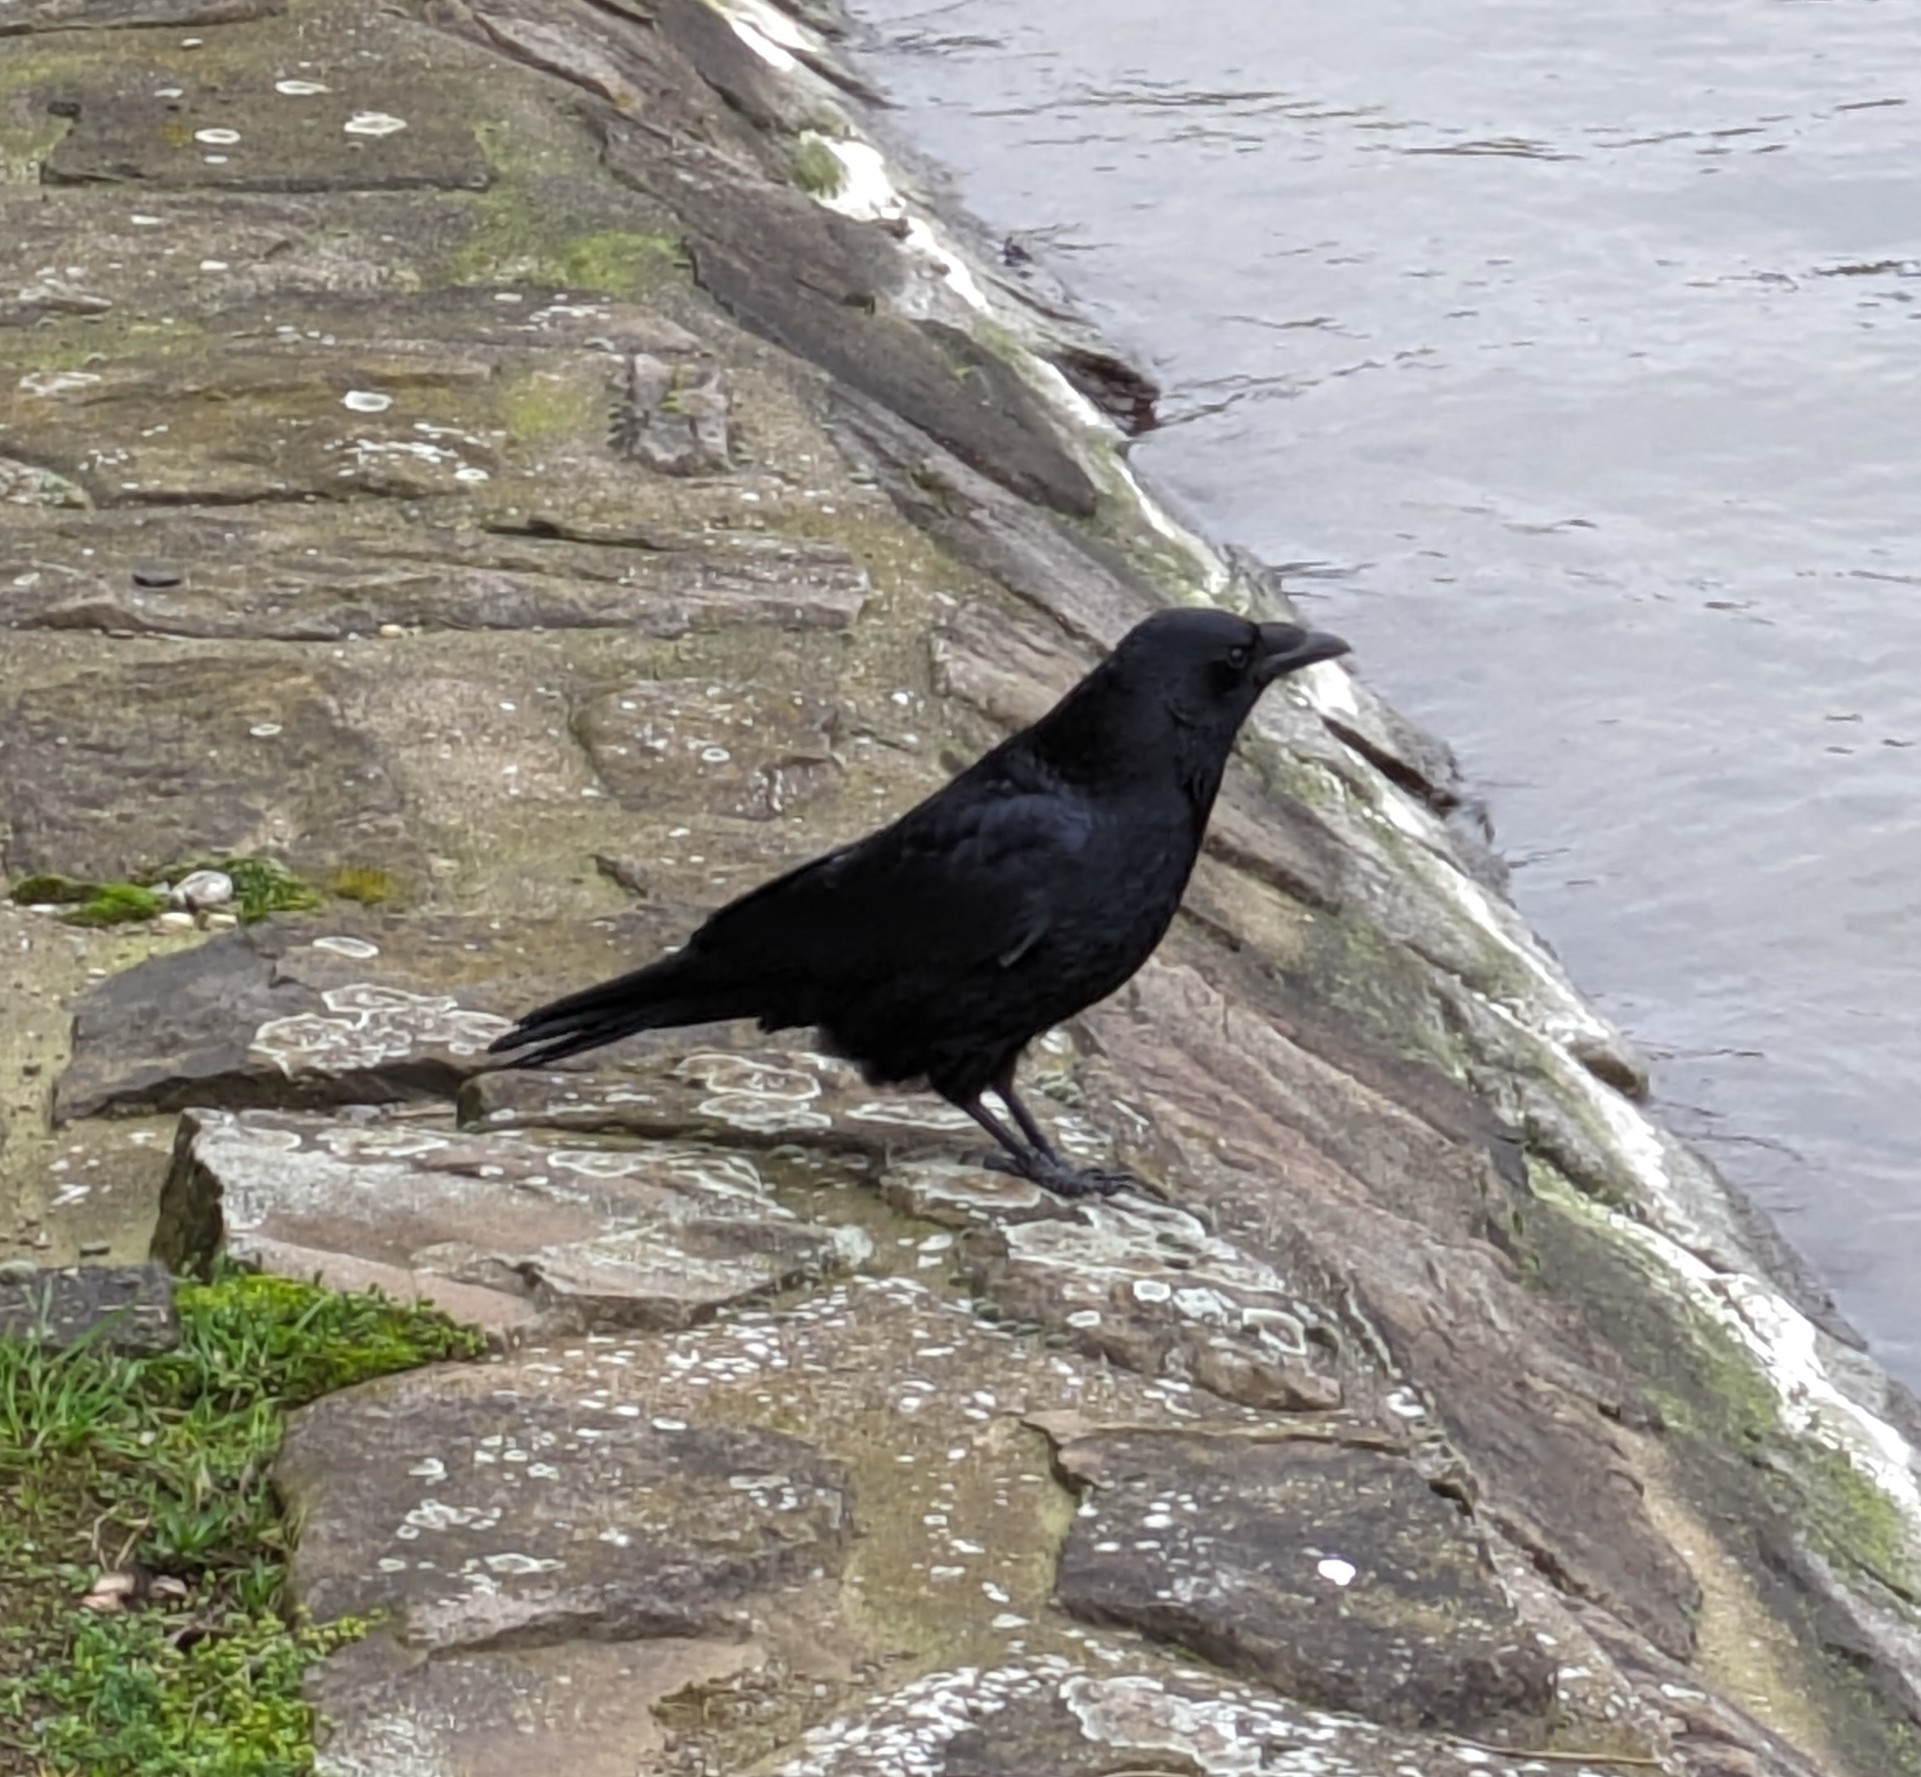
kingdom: Animalia
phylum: Chordata
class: Aves
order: Passeriformes
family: Corvidae
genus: Corvus
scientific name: Corvus corone
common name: Carrion crow
